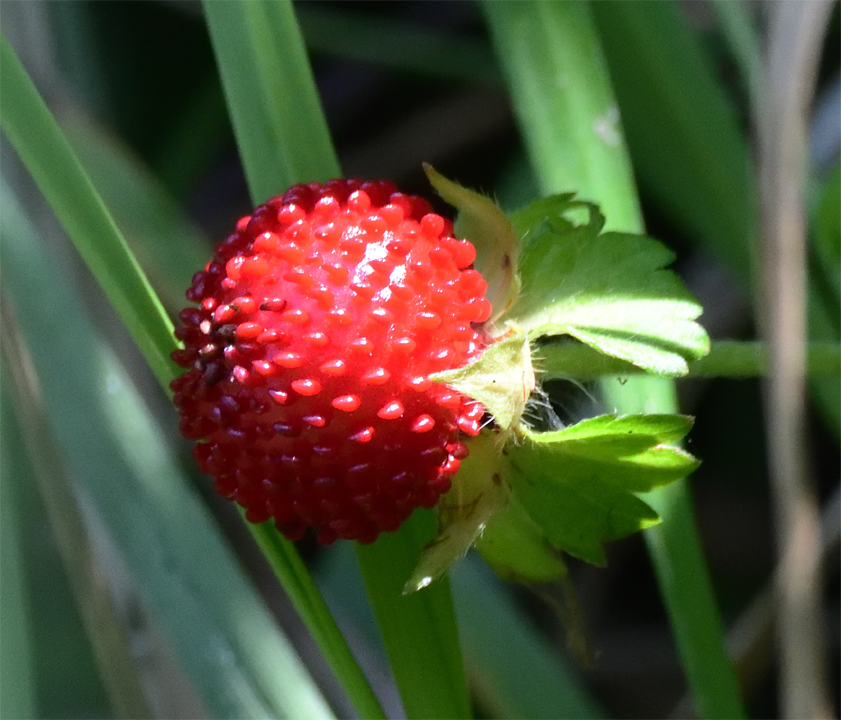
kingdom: Plantae
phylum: Tracheophyta
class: Magnoliopsida
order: Rosales
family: Rosaceae
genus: Potentilla
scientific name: Potentilla indica
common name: Yellow-flowered strawberry
